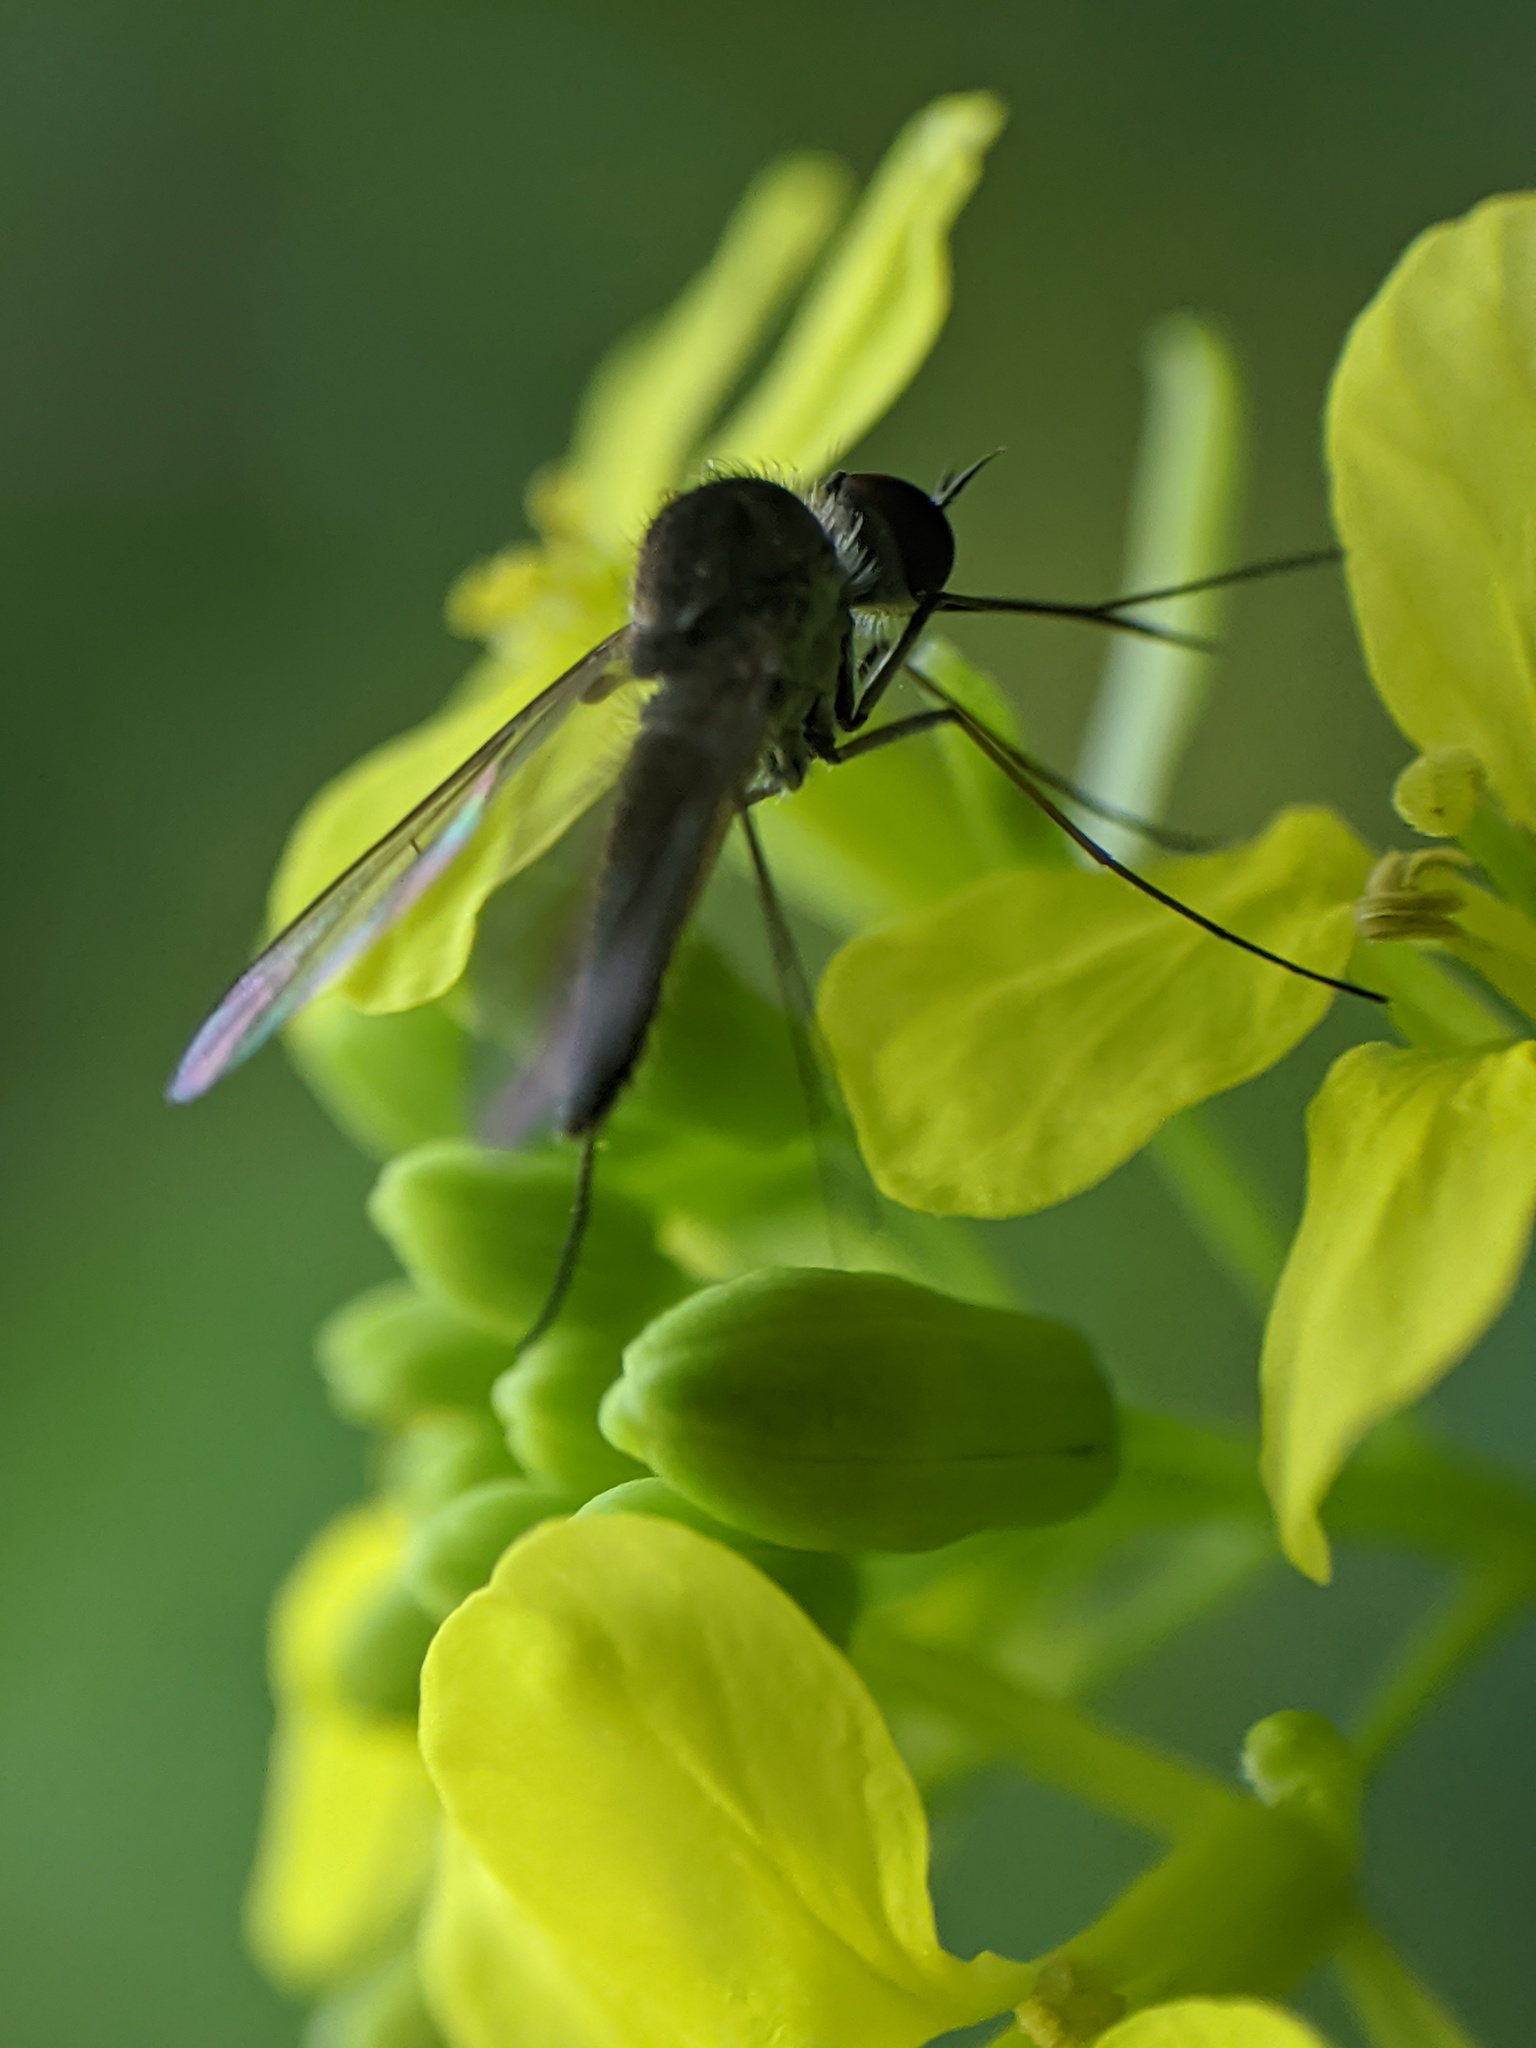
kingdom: Animalia
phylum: Arthropoda
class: Insecta
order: Diptera
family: Bombyliidae
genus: Geron
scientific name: Geron calvus
